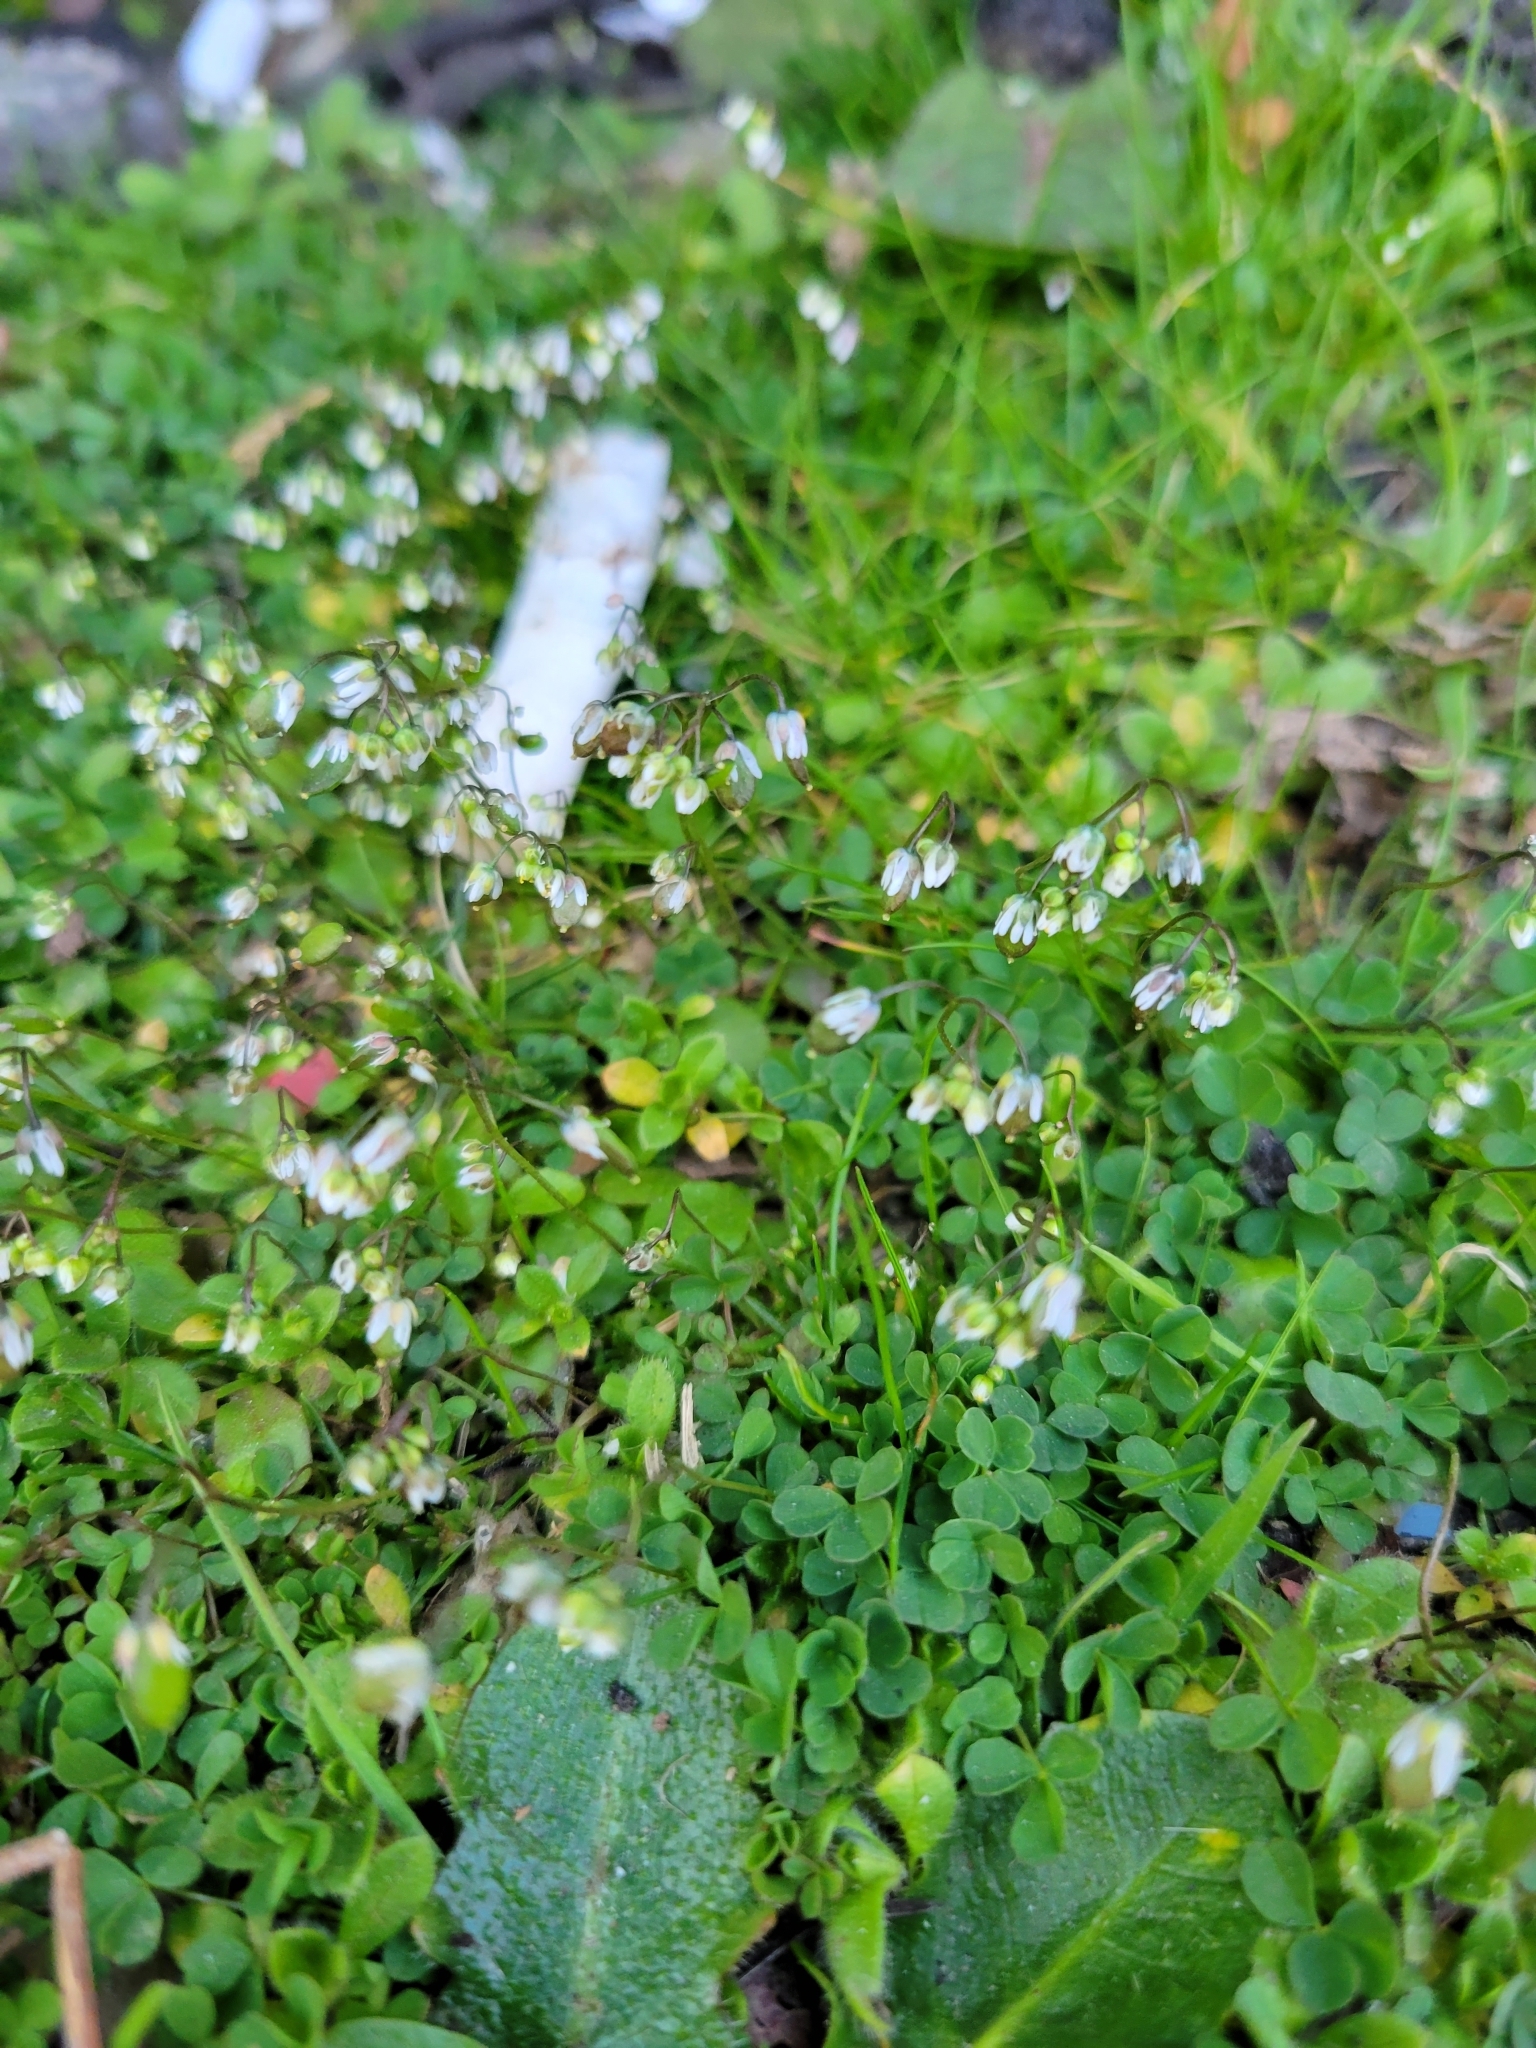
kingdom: Plantae
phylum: Tracheophyta
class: Magnoliopsida
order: Brassicales
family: Brassicaceae
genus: Draba
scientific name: Draba verna
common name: Spring draba
